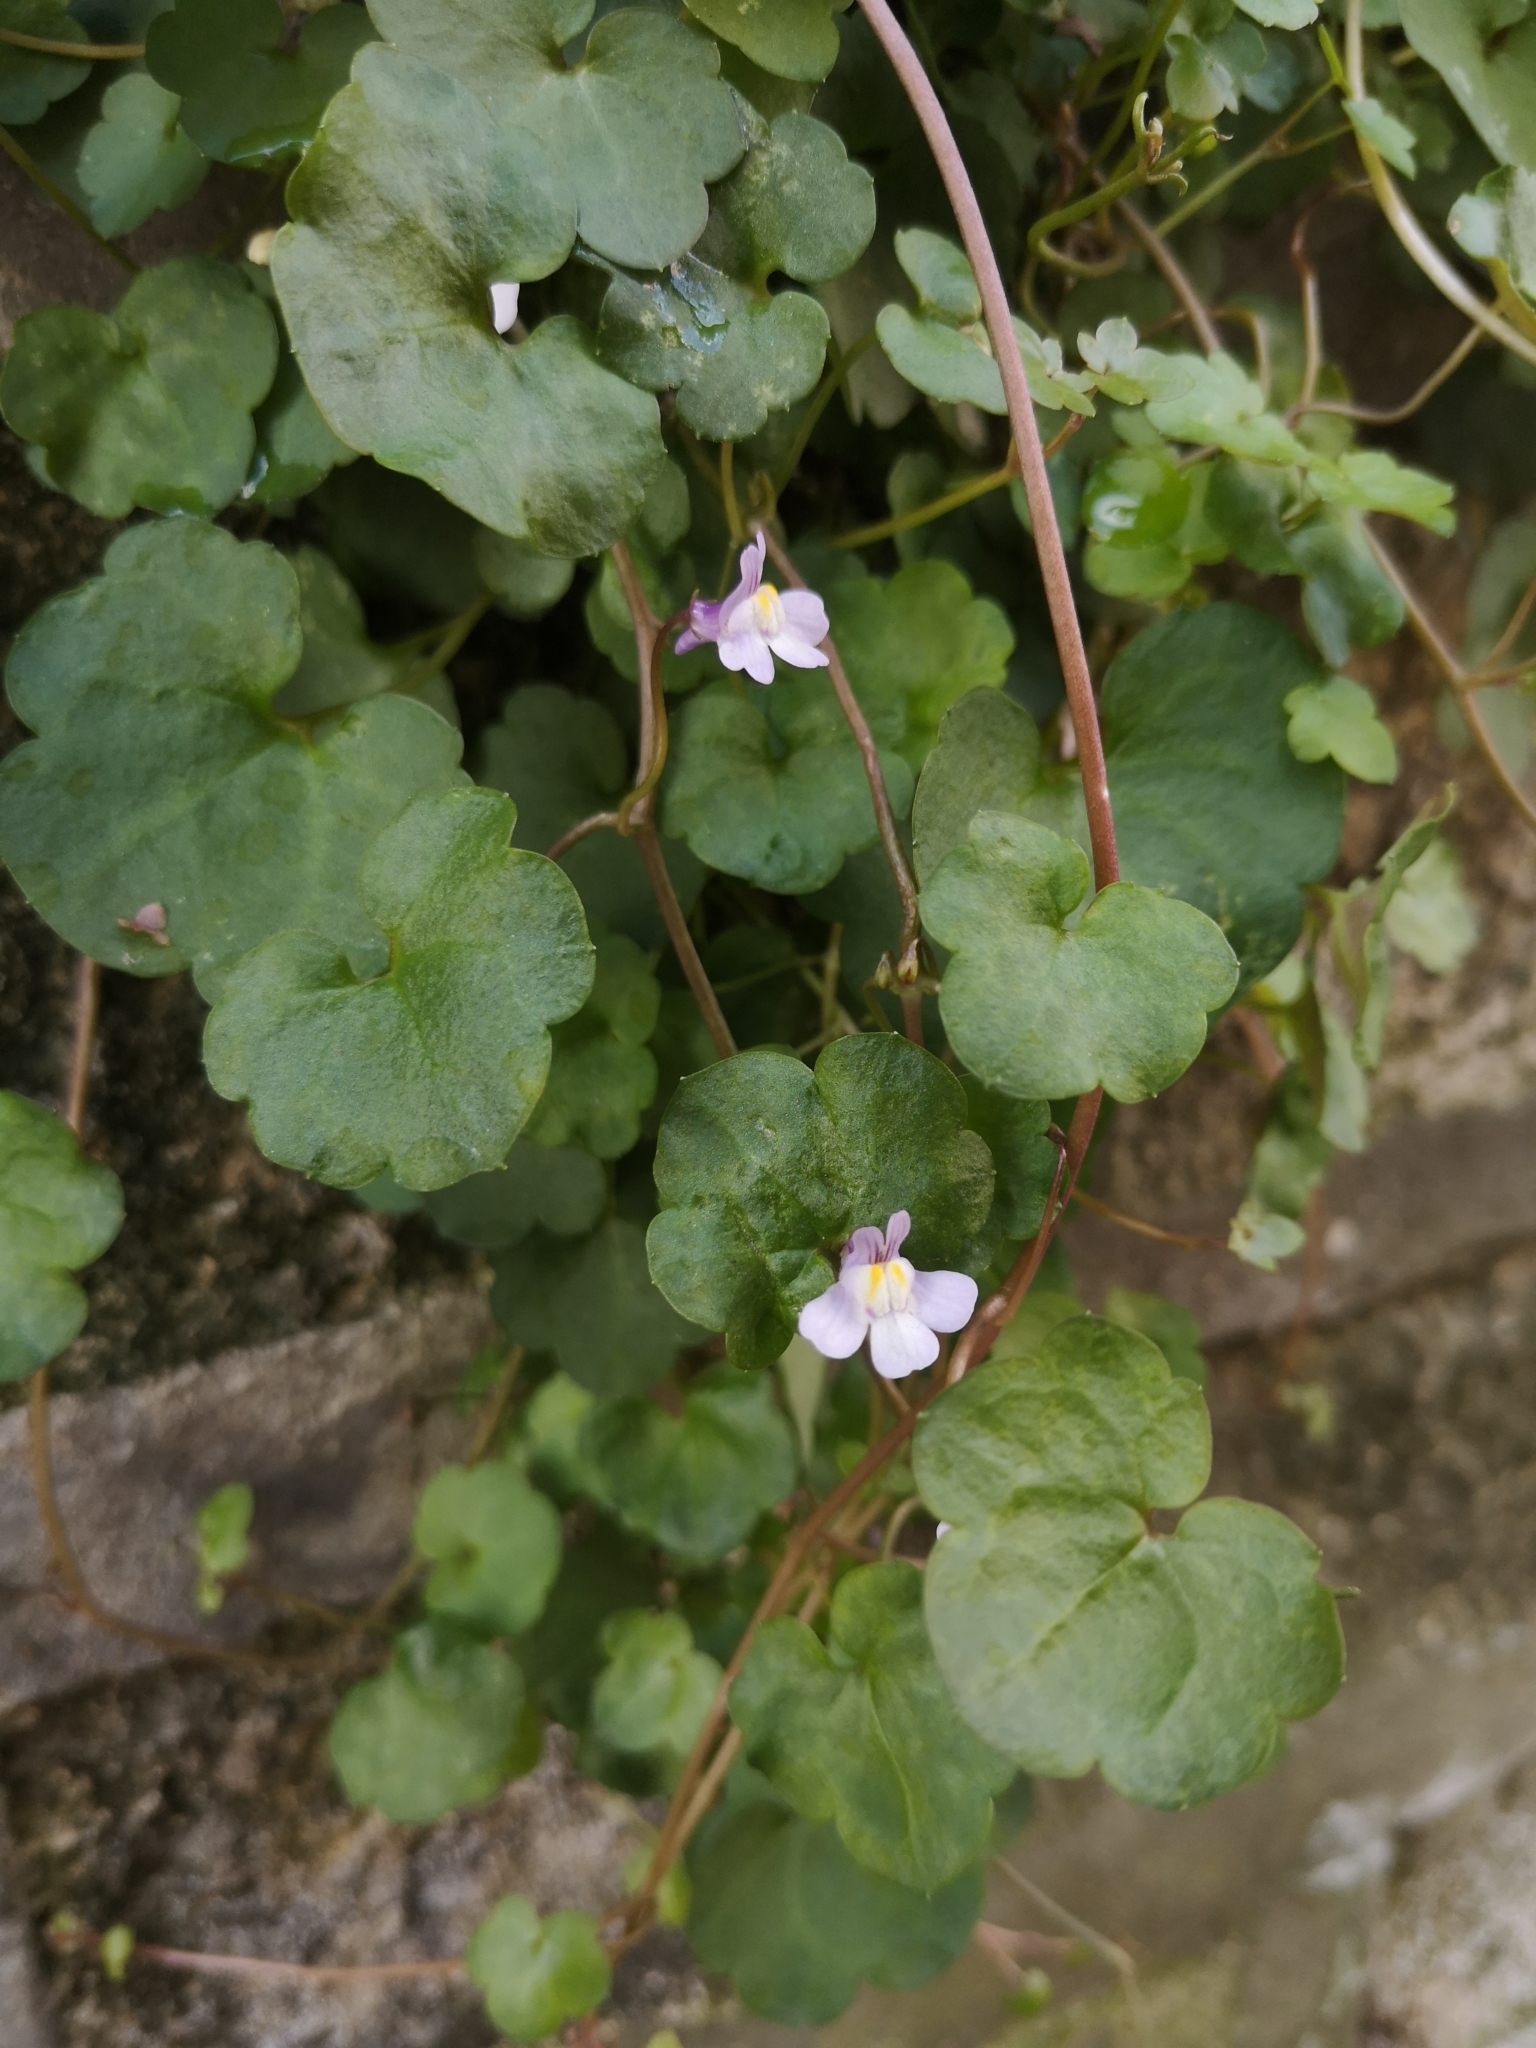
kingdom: Plantae
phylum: Tracheophyta
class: Magnoliopsida
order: Lamiales
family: Plantaginaceae
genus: Cymbalaria
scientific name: Cymbalaria muralis
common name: Ivy-leaved toadflax
